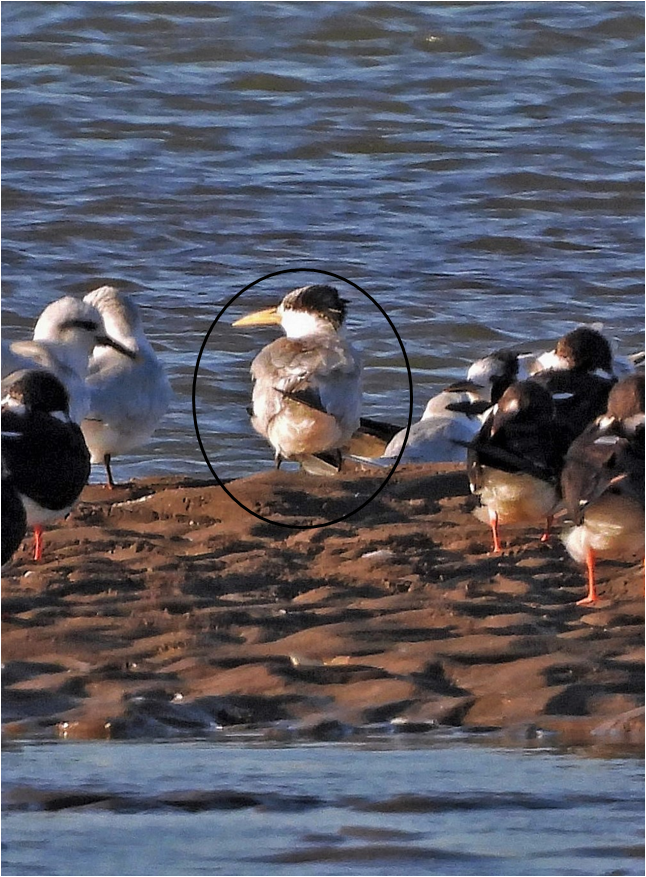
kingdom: Animalia
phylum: Chordata
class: Aves
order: Charadriiformes
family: Laridae
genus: Thalasseus
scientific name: Thalasseus sandvicensis
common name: Sandwich tern
